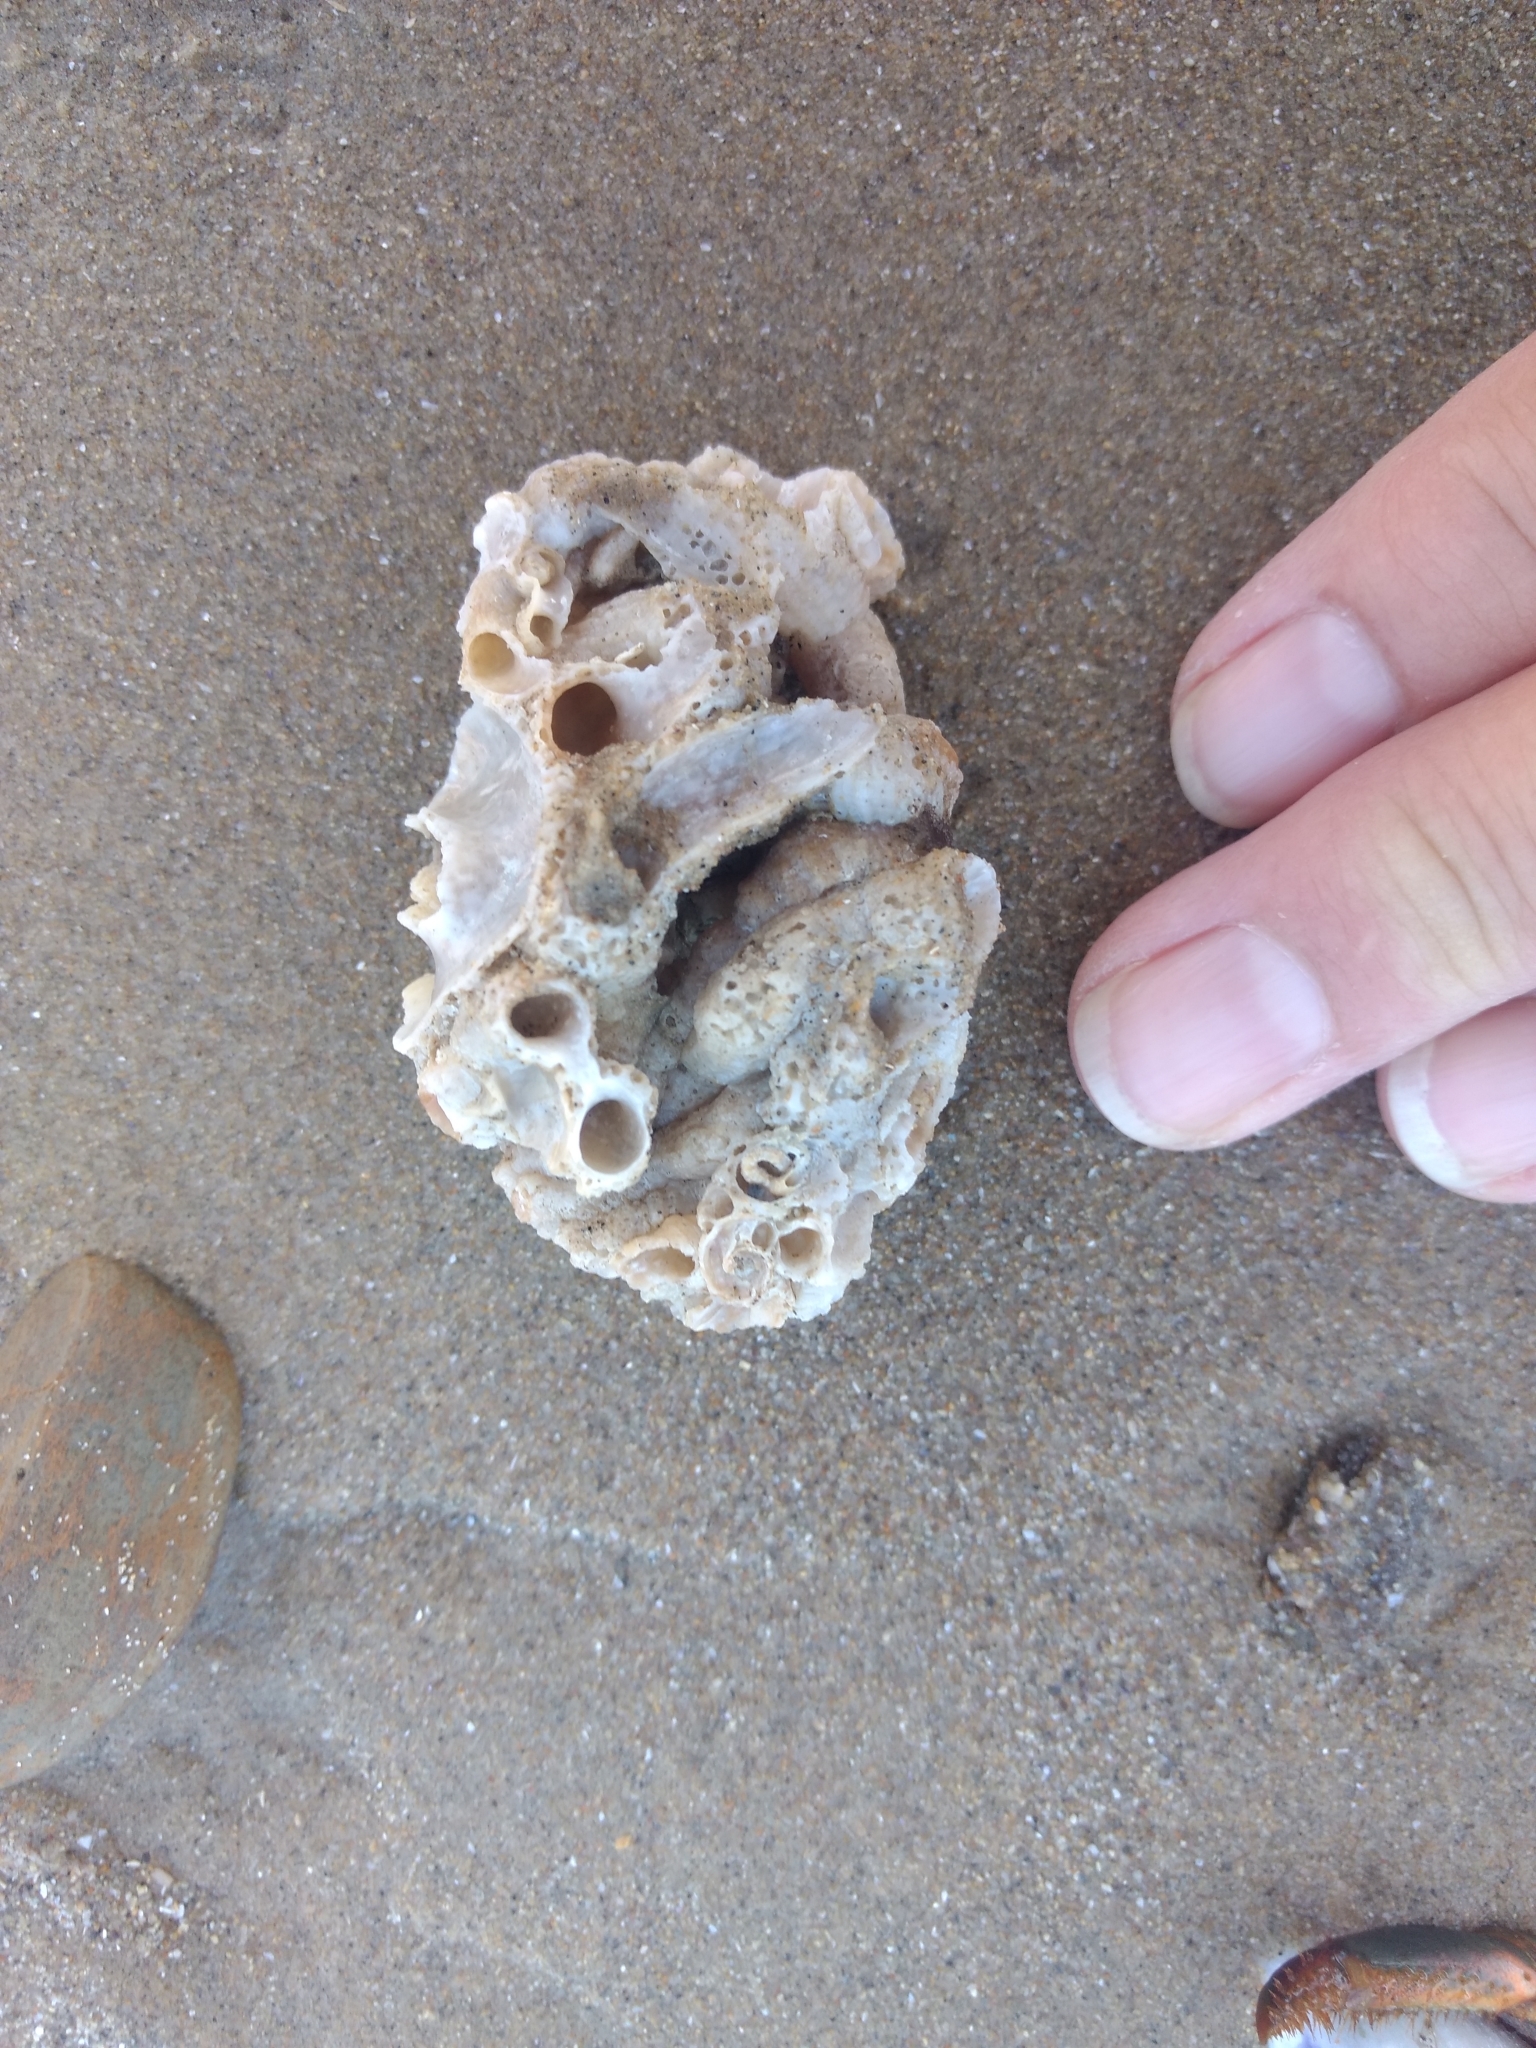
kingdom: Animalia
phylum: Mollusca
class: Gastropoda
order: Littorinimorpha
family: Vermetidae
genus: Thylacodes
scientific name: Thylacodes squamigerus
